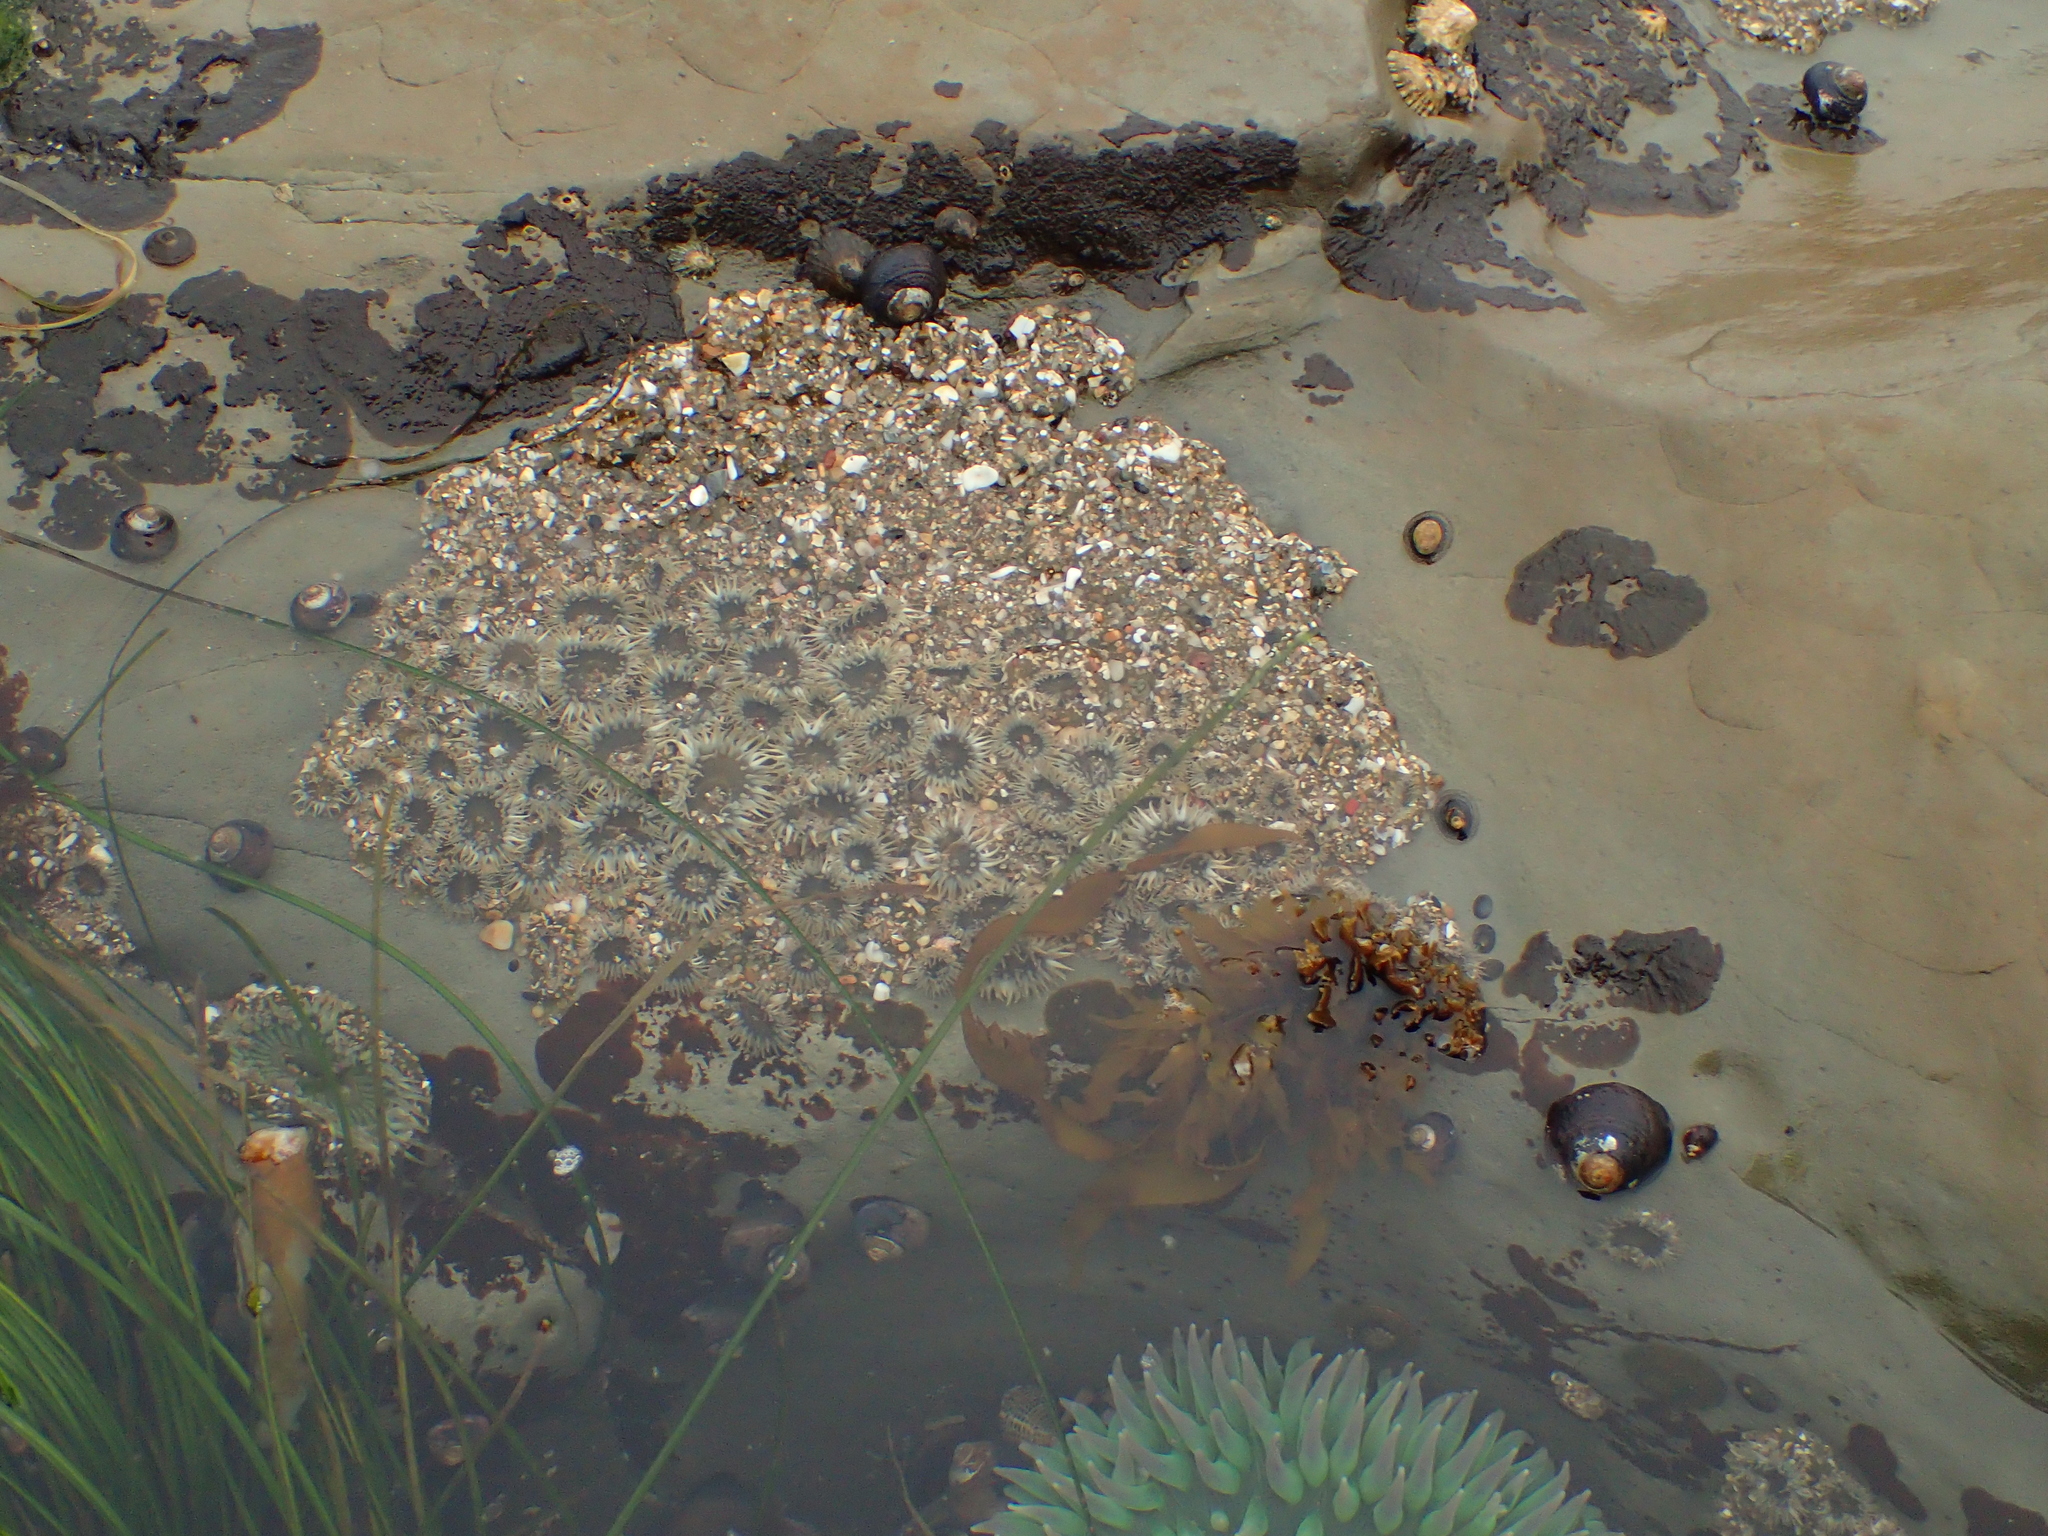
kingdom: Animalia
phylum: Cnidaria
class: Anthozoa
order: Actiniaria
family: Actiniidae
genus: Anthopleura
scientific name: Anthopleura elegantissima
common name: Clonal anemone
